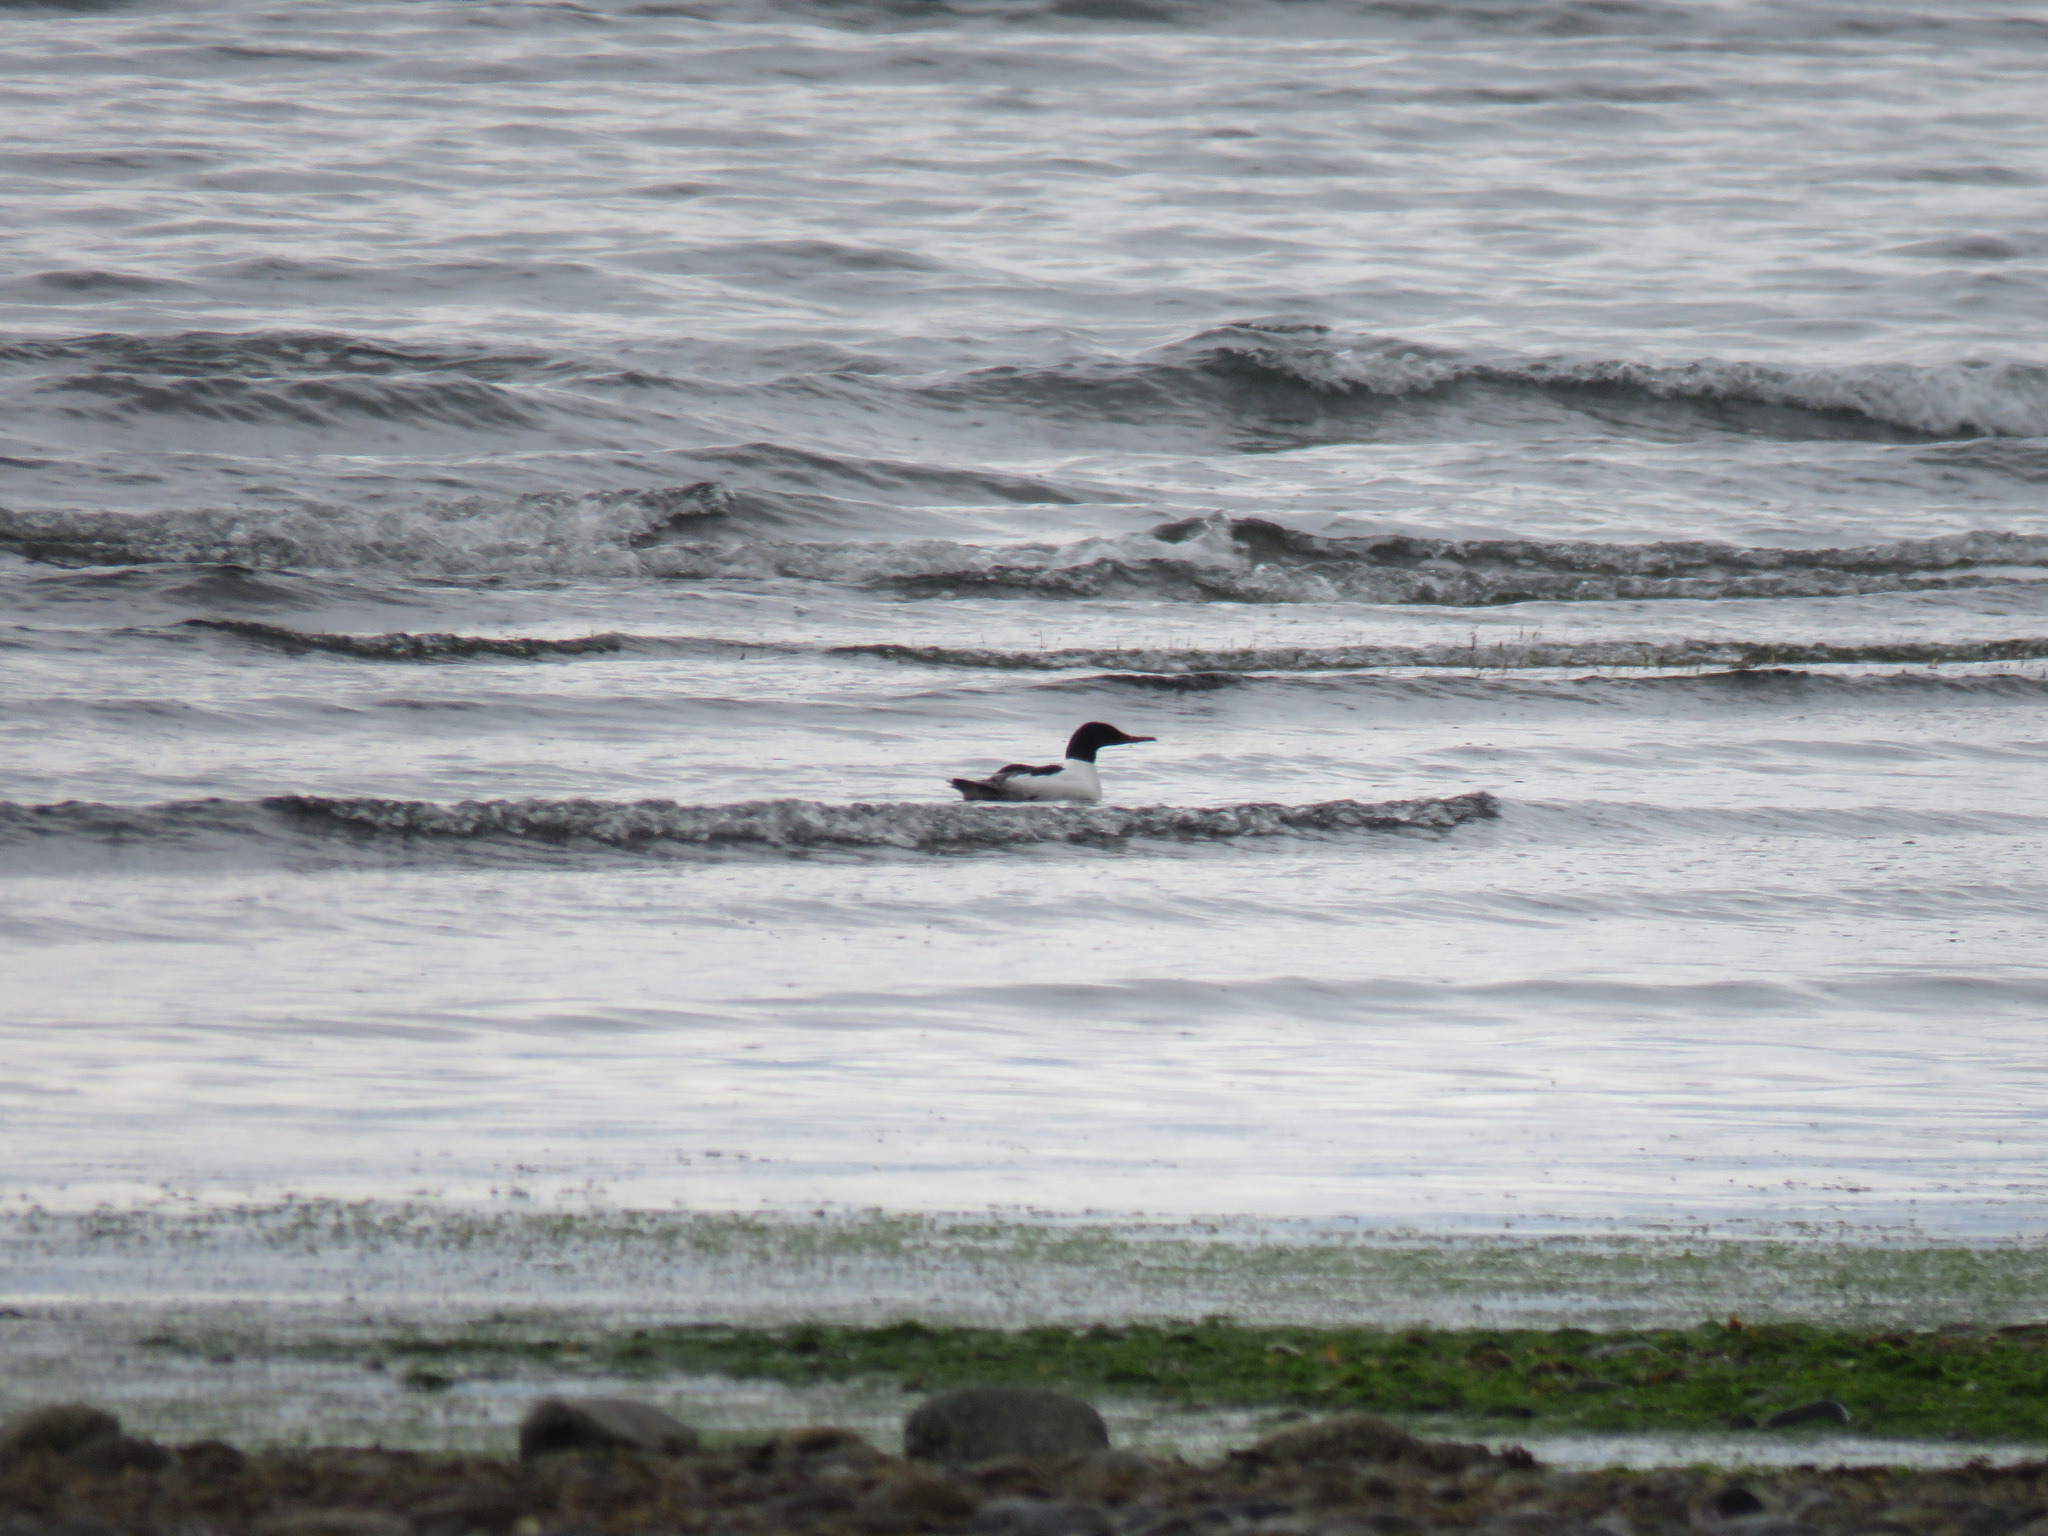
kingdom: Animalia
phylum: Chordata
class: Aves
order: Anseriformes
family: Anatidae
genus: Mergus
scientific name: Mergus merganser
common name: Common merganser
